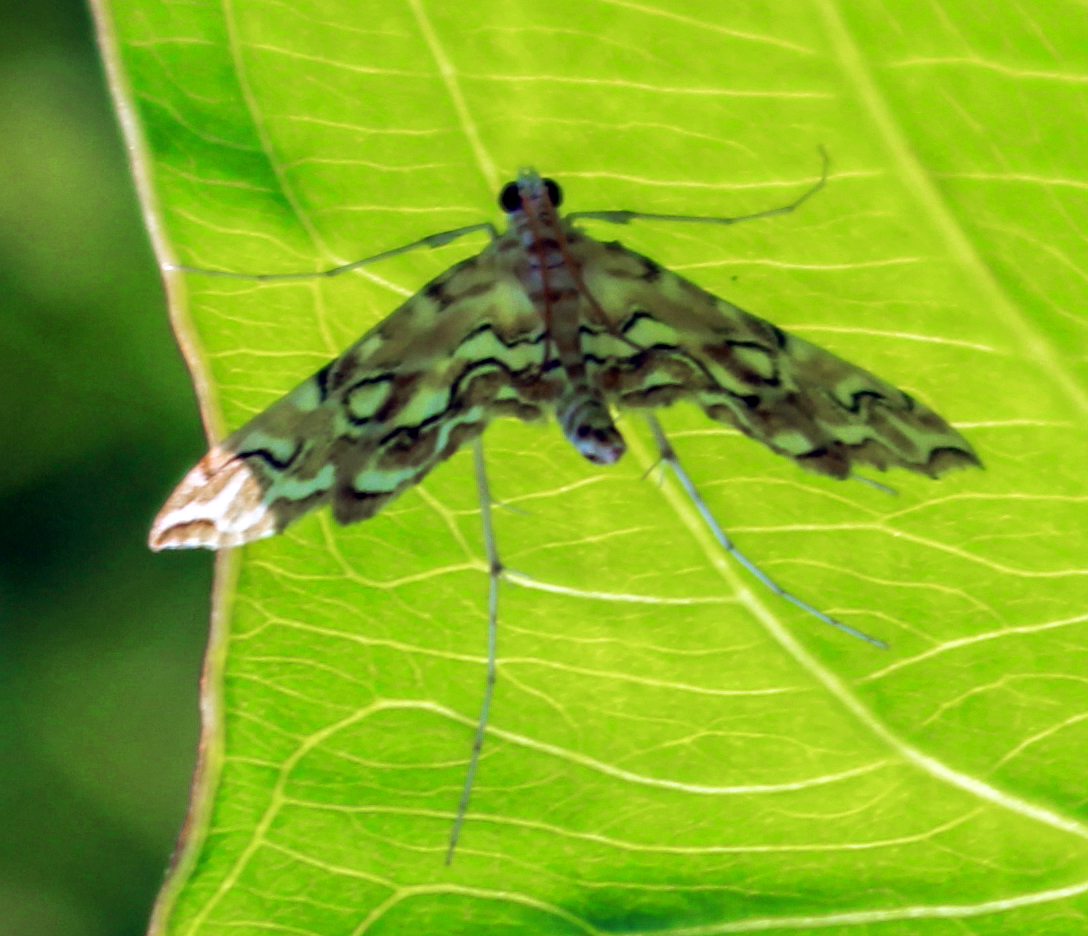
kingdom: Animalia
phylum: Arthropoda
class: Insecta
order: Lepidoptera
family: Crambidae
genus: Elophila
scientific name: Elophila icciusalis
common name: Pondside pyralid moth
